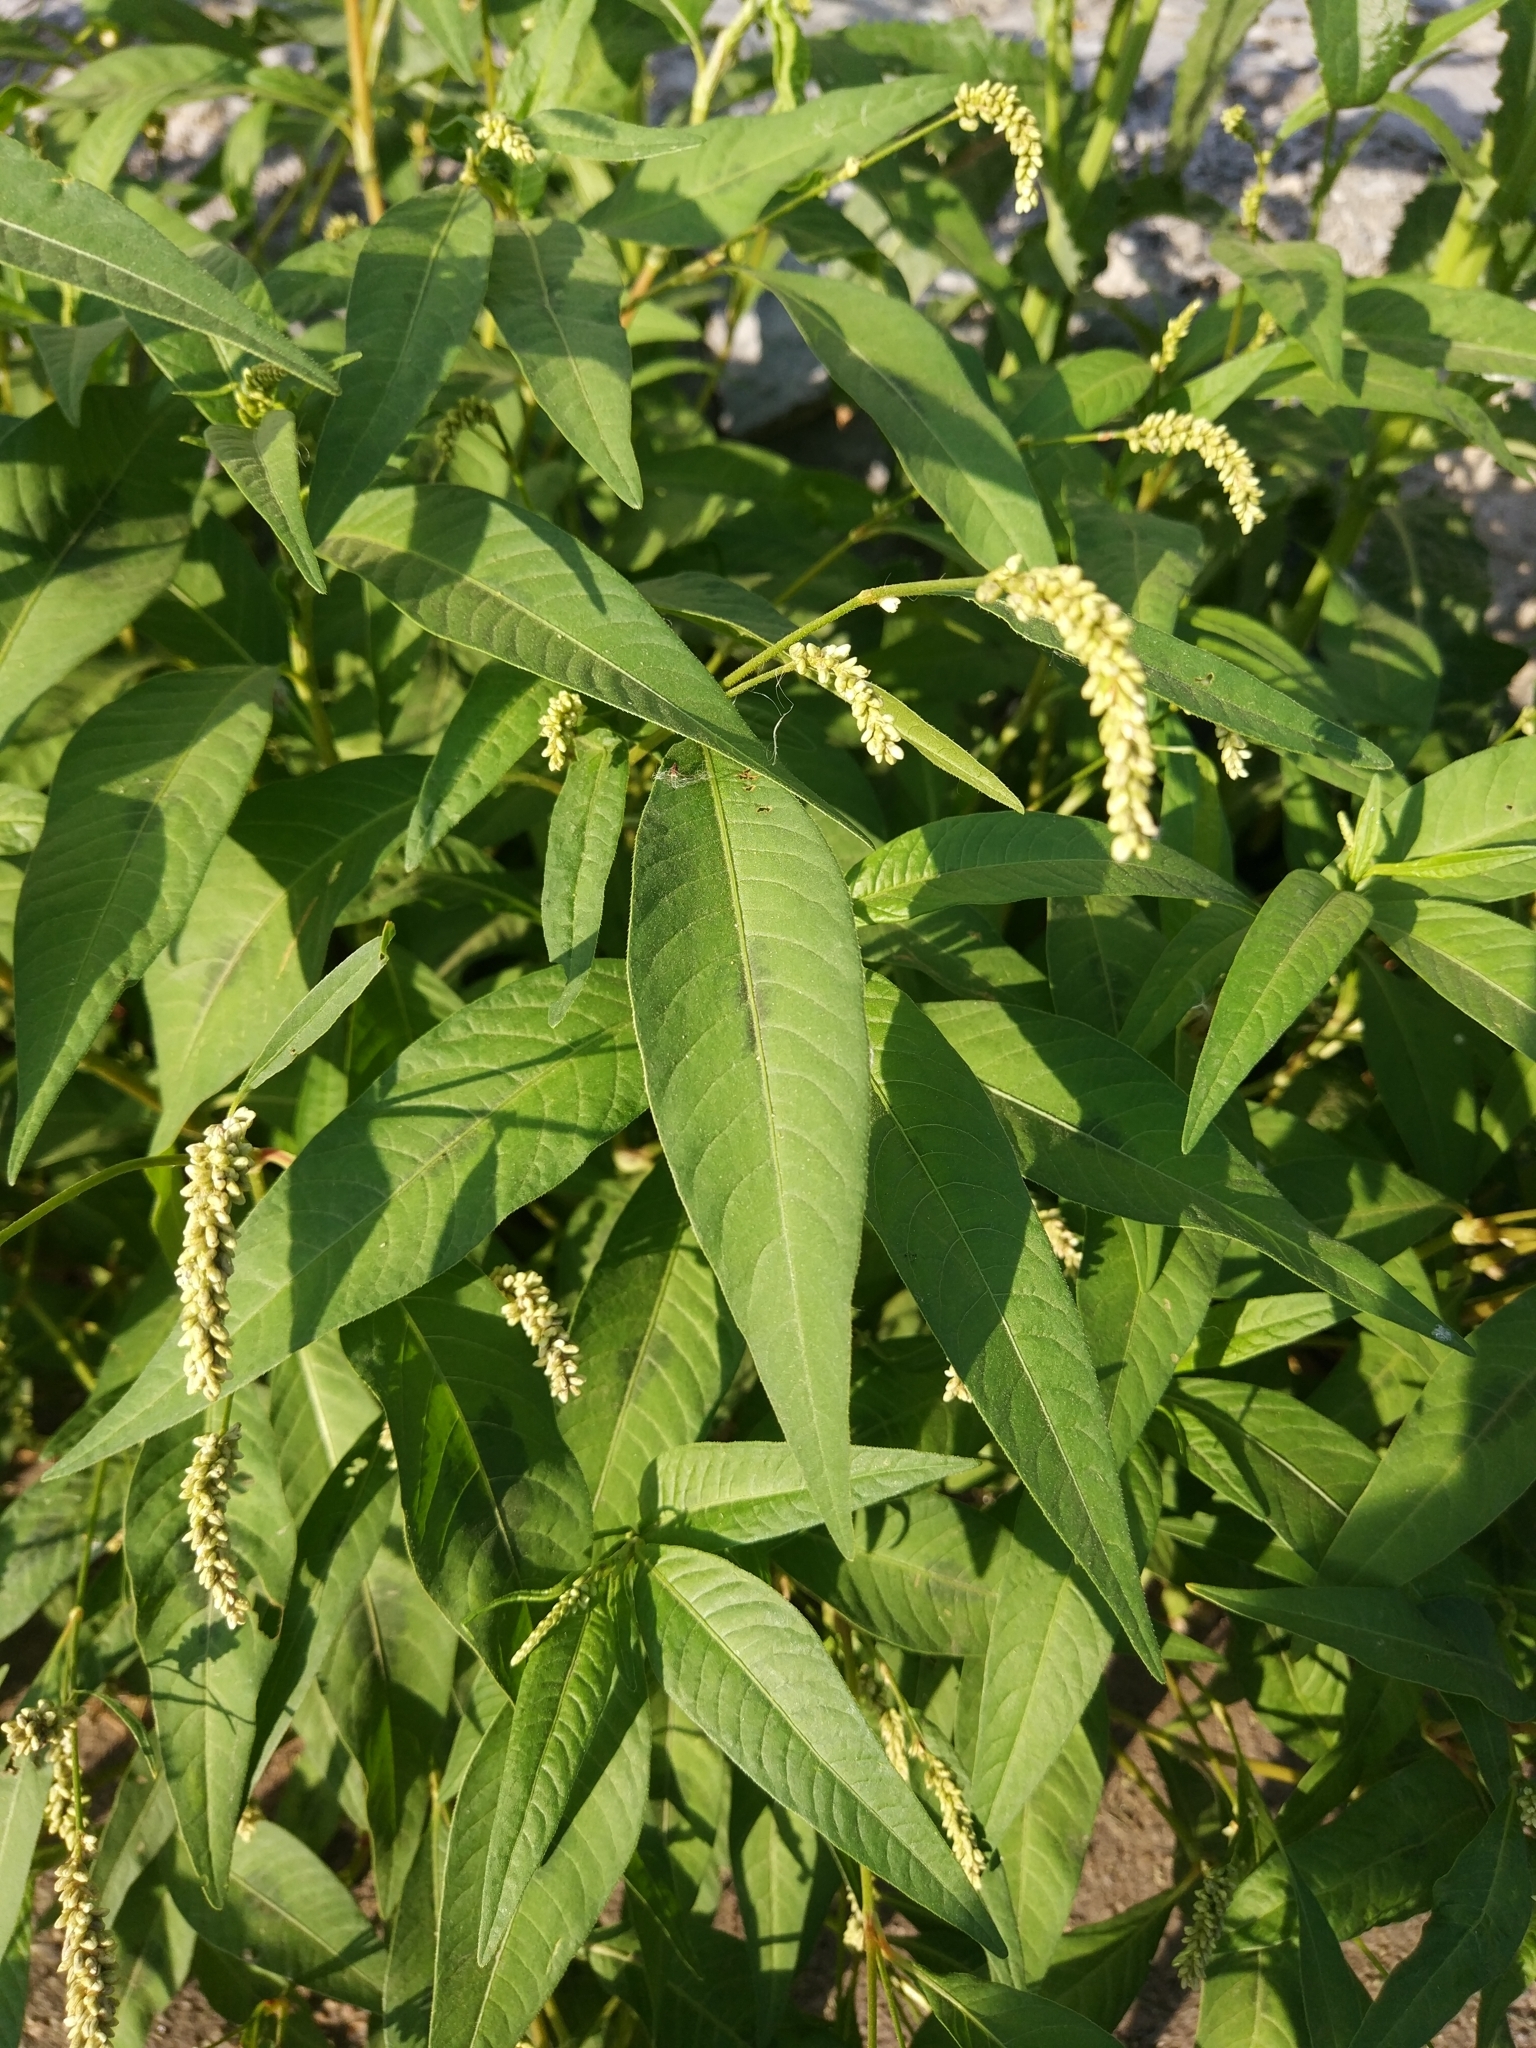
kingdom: Plantae
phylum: Tracheophyta
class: Magnoliopsida
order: Caryophyllales
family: Polygonaceae
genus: Persicaria
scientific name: Persicaria lapathifolia
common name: Curlytop knotweed
